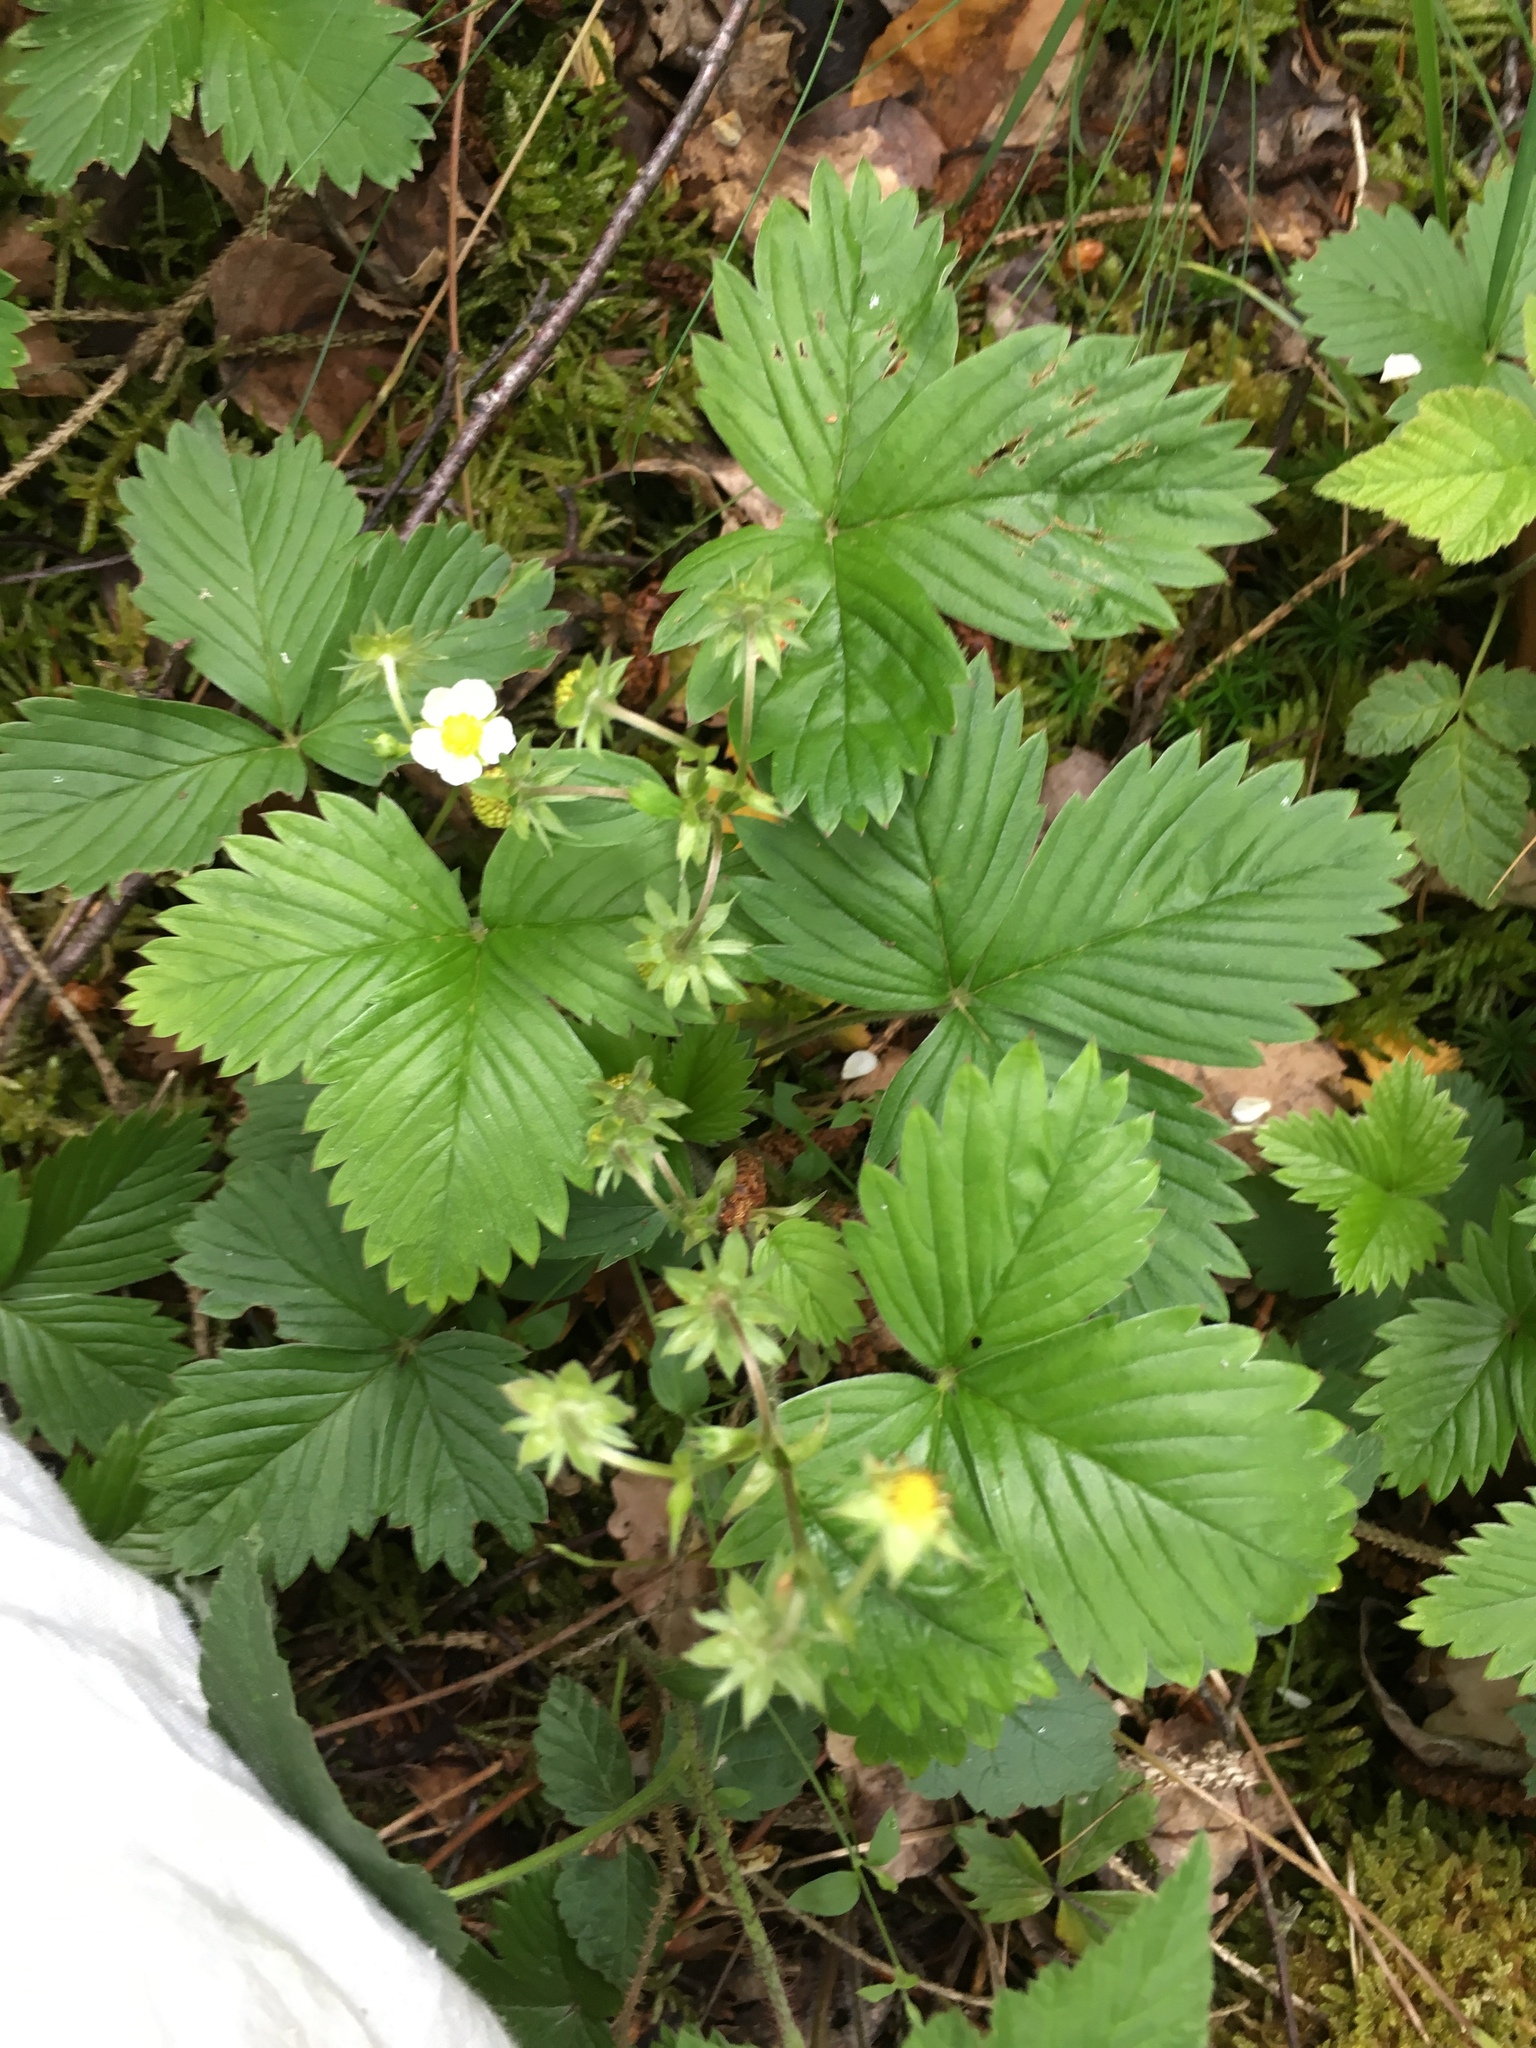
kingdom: Plantae
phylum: Tracheophyta
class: Magnoliopsida
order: Rosales
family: Rosaceae
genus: Fragaria
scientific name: Fragaria vesca
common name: Wild strawberry
